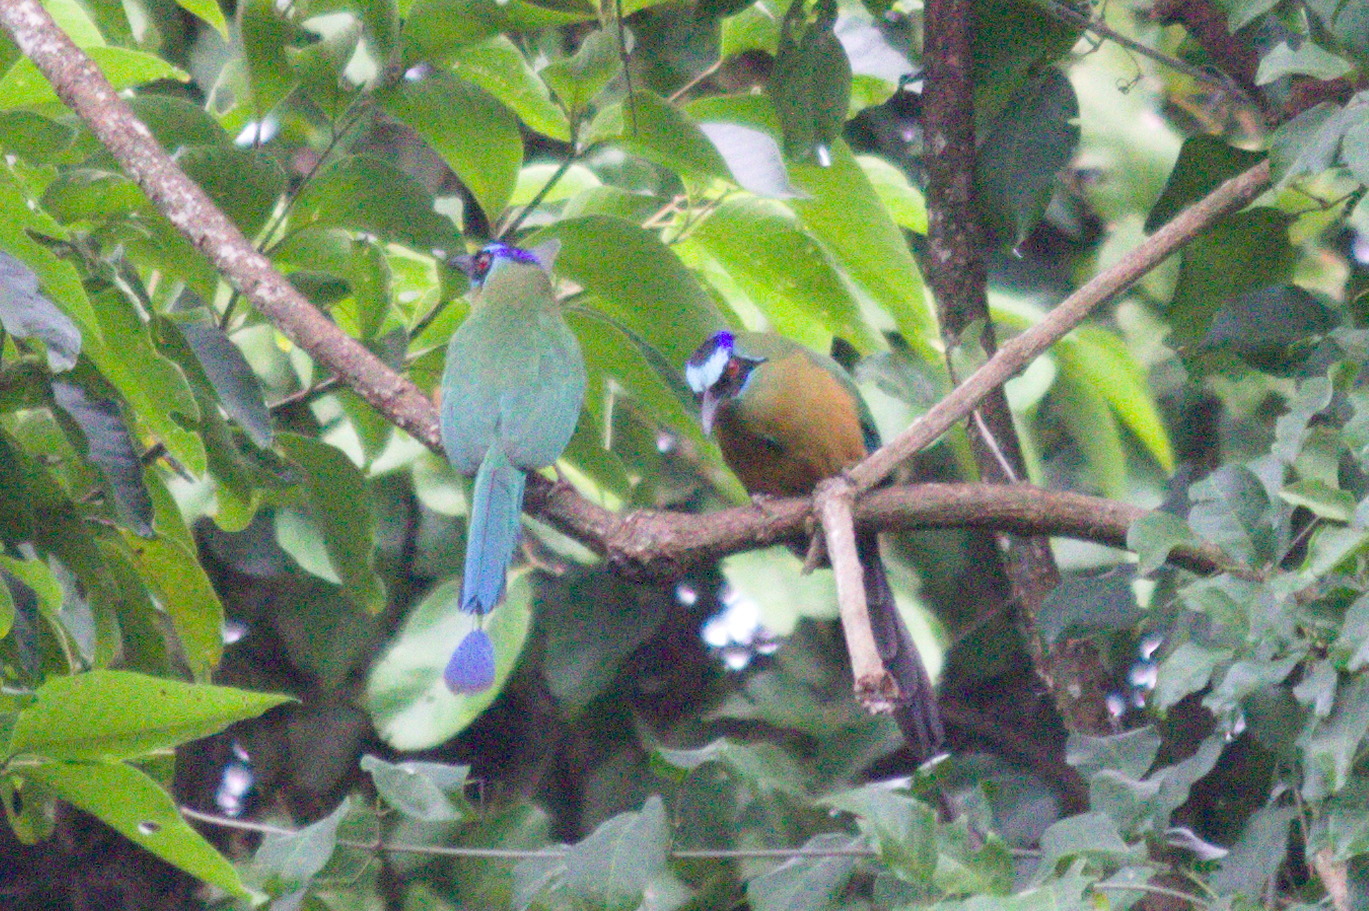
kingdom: Animalia
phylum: Chordata
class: Aves
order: Coraciiformes
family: Momotidae
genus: Momotus
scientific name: Momotus momota
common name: Amazonian motmot
